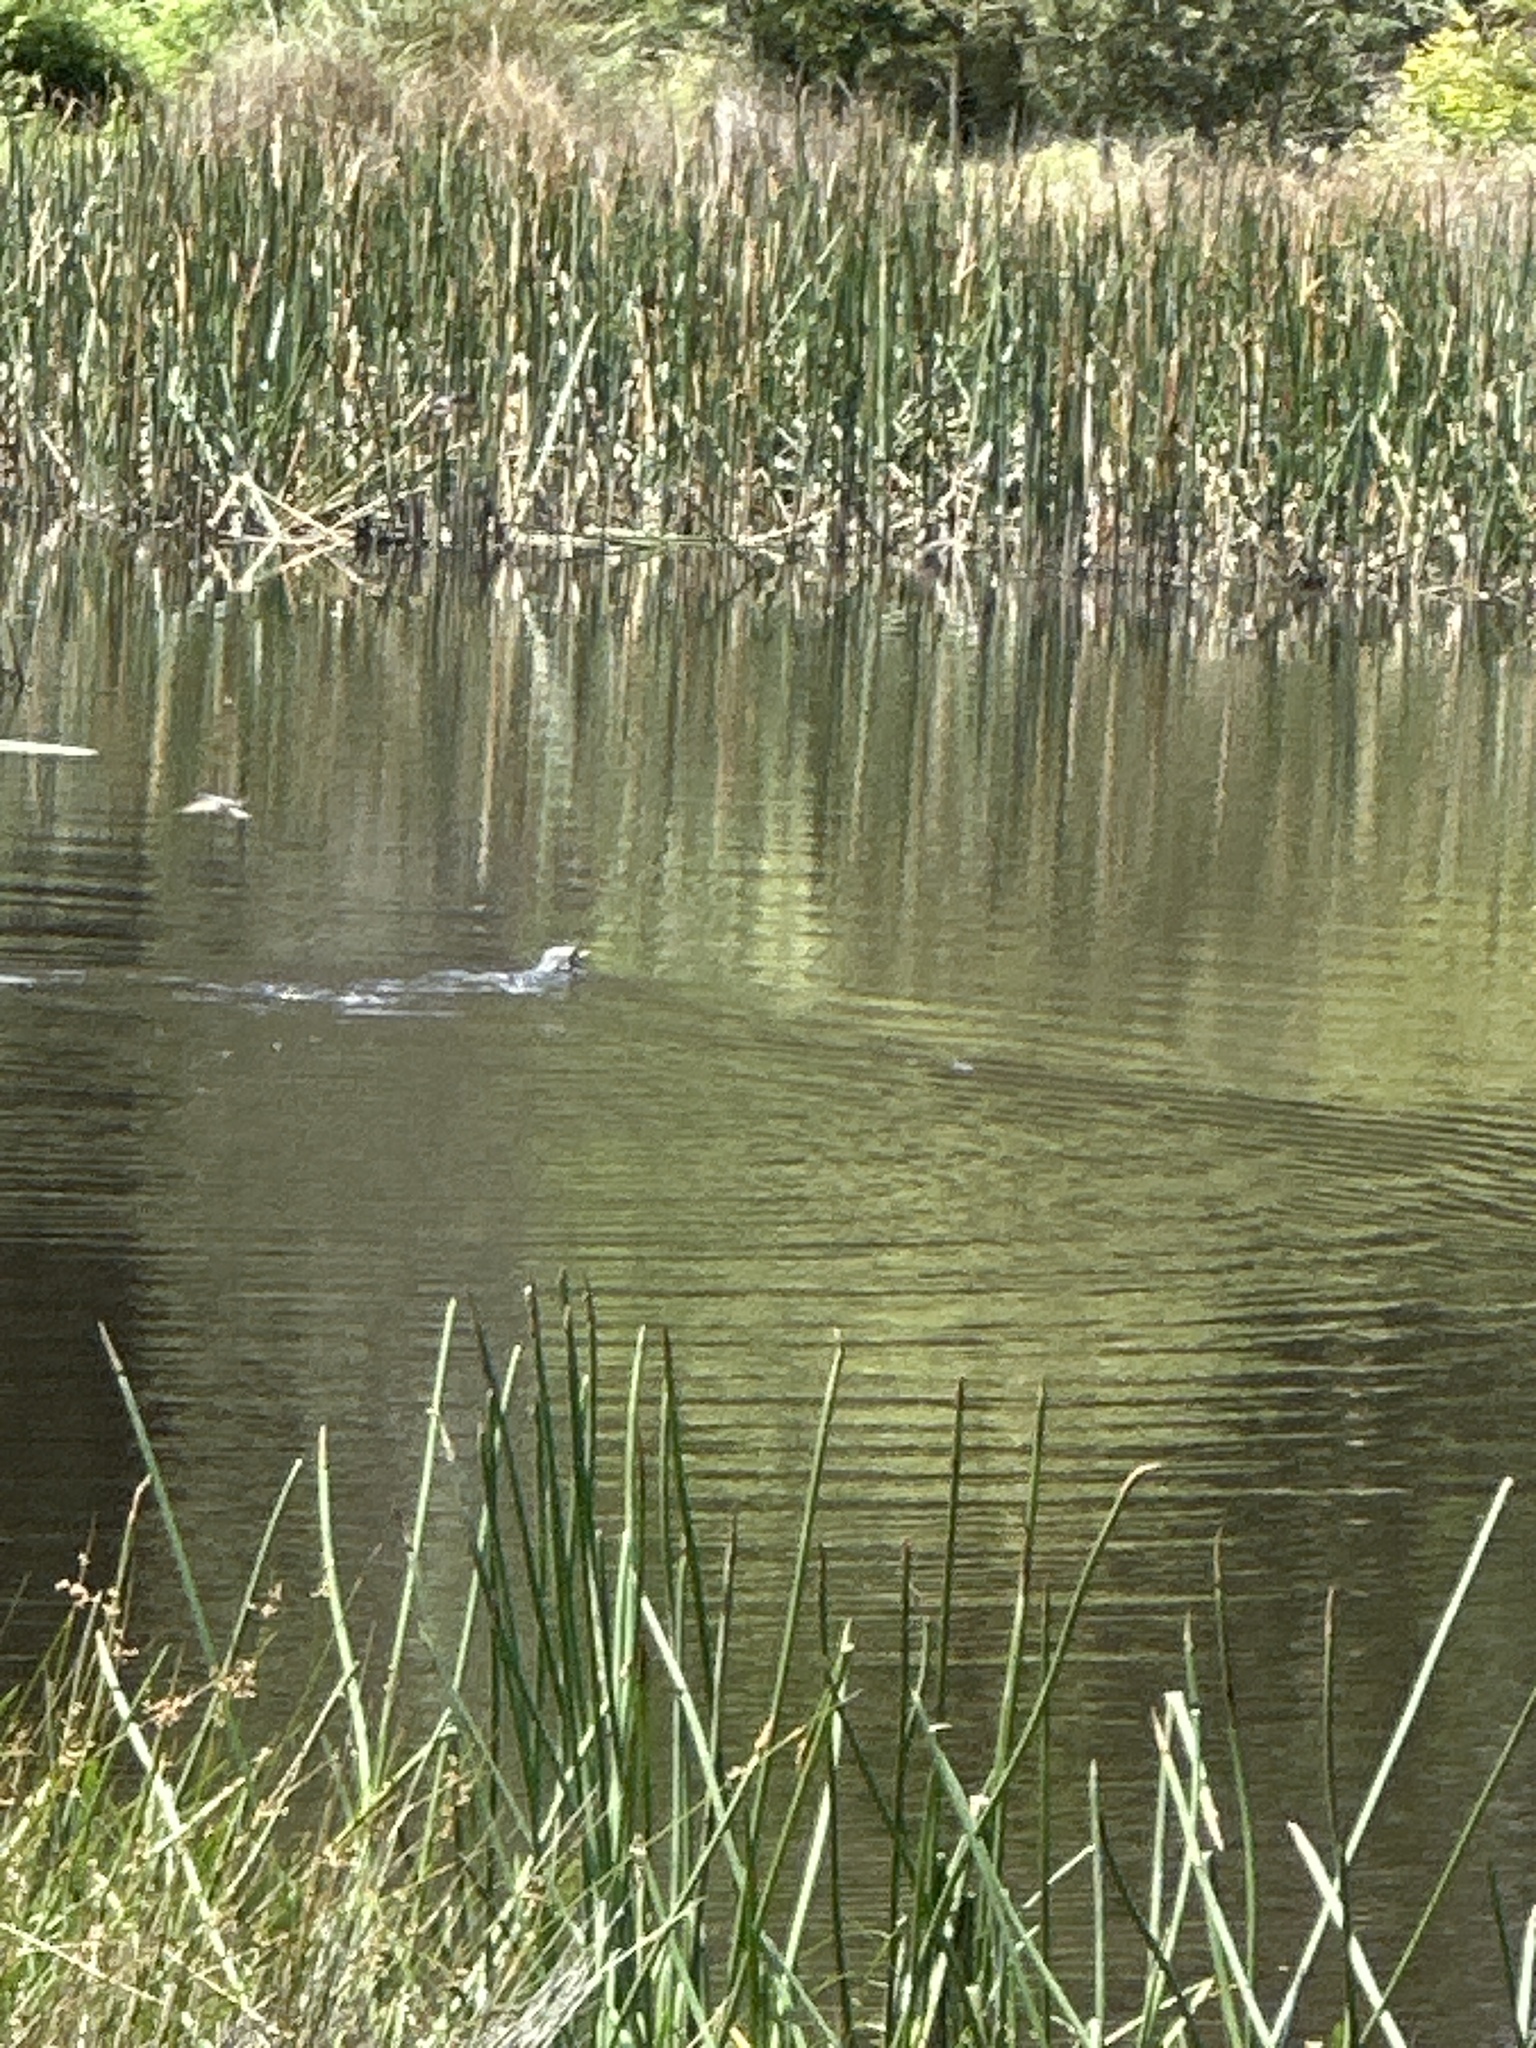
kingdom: Animalia
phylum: Chordata
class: Squamata
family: Varanidae
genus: Varanus
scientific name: Varanus varius
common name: Lace monitor
